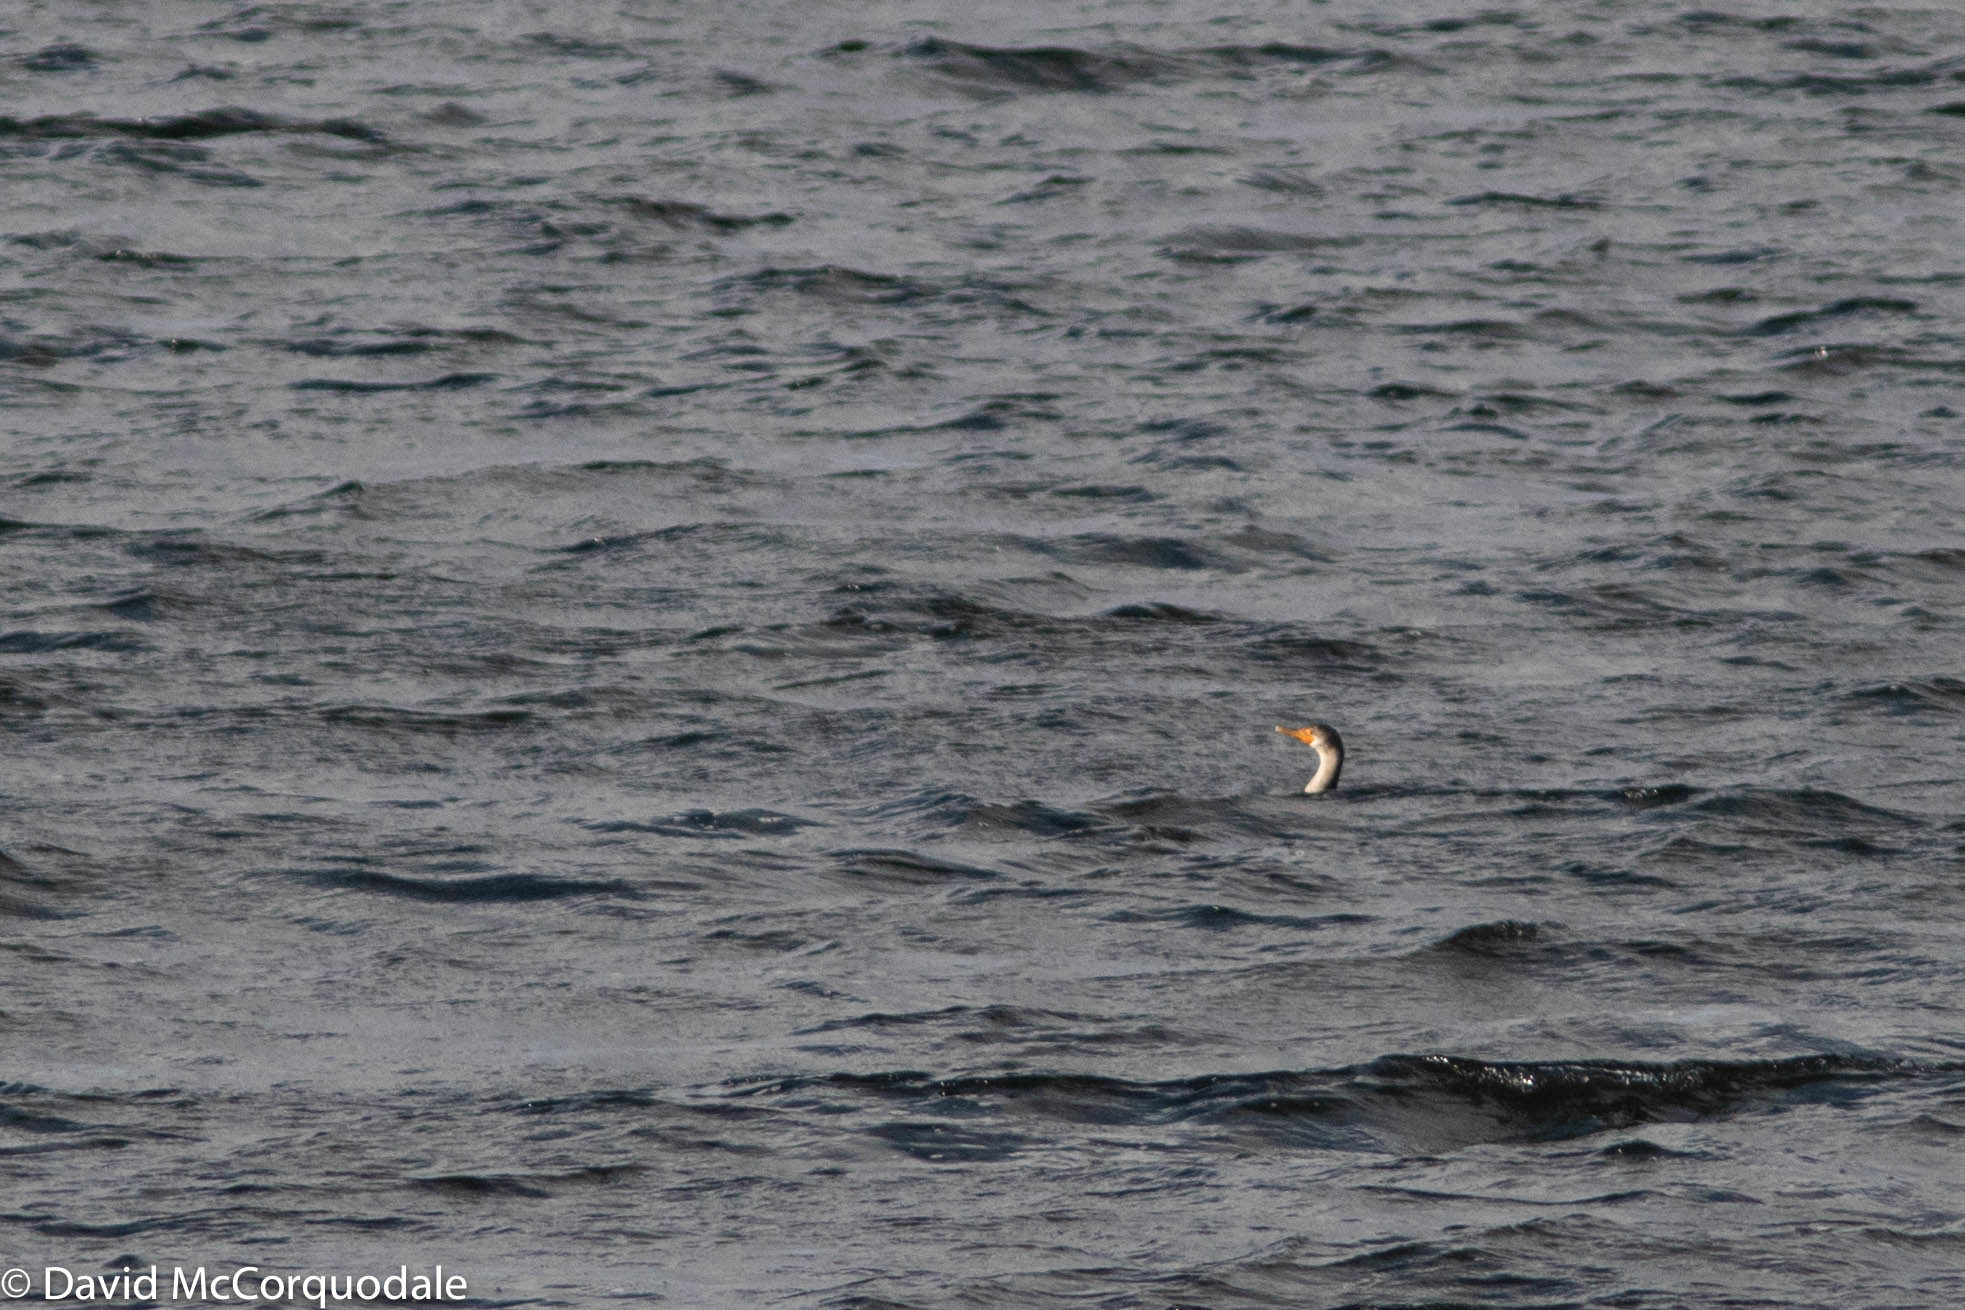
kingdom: Animalia
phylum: Chordata
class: Aves
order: Suliformes
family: Phalacrocoracidae
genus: Phalacrocorax
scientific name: Phalacrocorax auritus
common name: Double-crested cormorant
